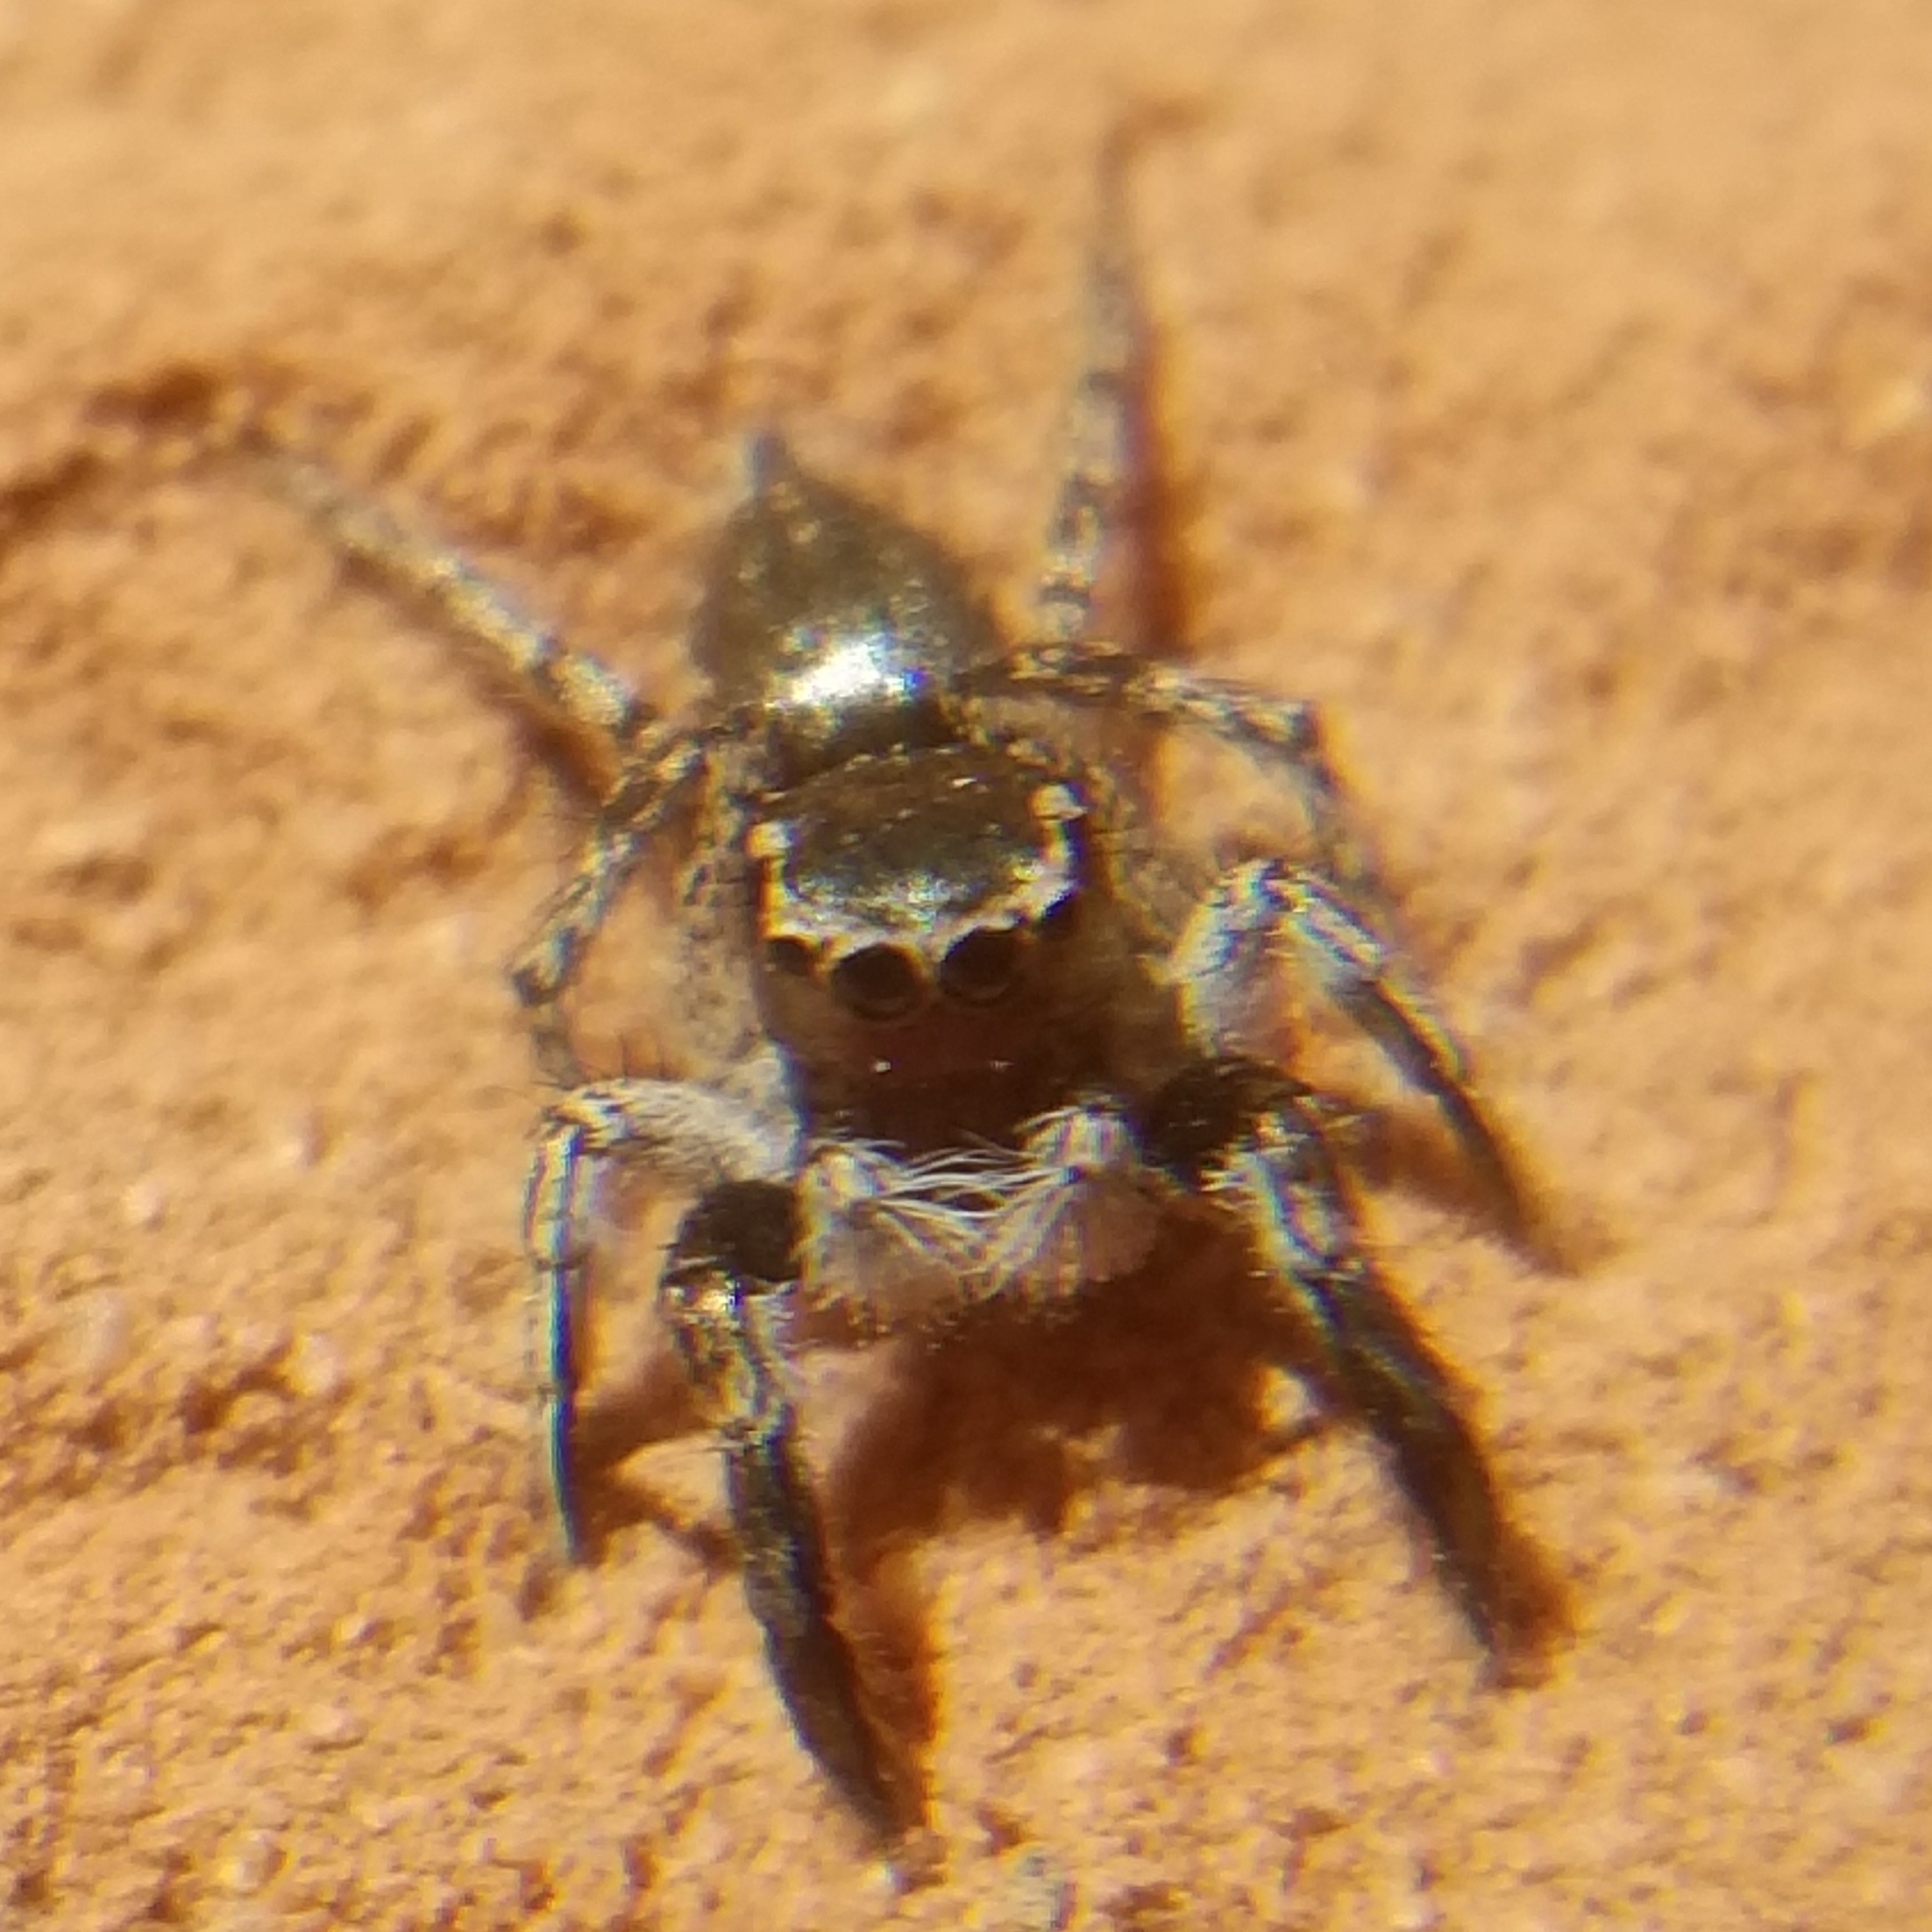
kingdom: Animalia
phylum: Arthropoda
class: Arachnida
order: Araneae
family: Salticidae
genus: Habronattus
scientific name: Habronattus hirsutus
